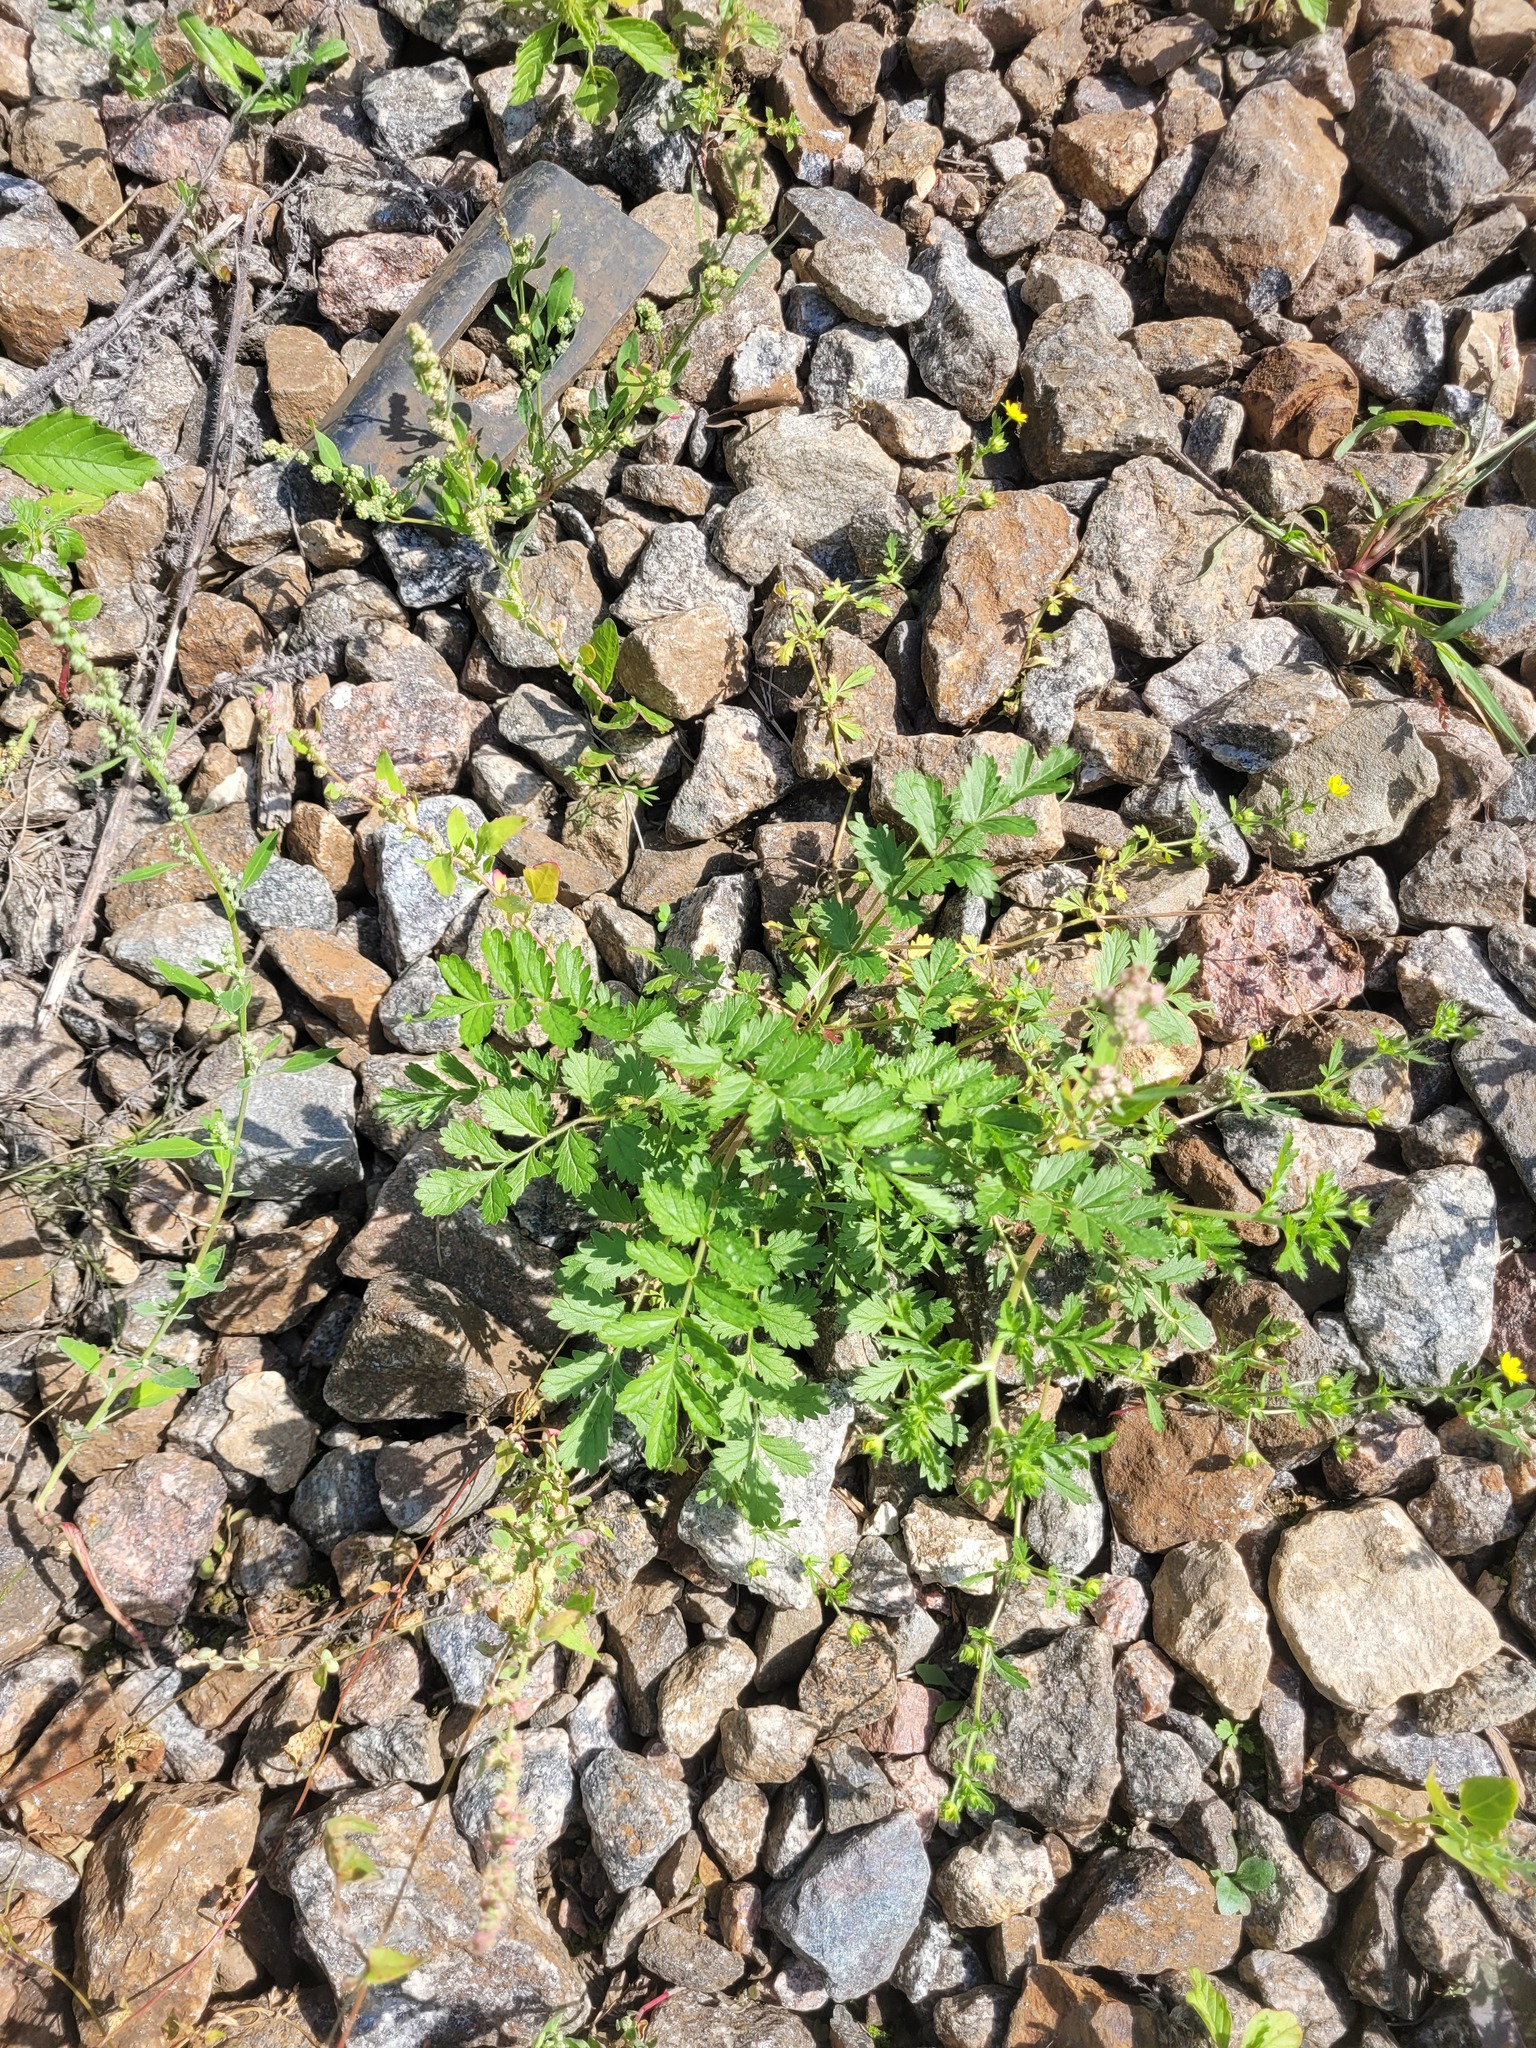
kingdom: Plantae
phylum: Tracheophyta
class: Magnoliopsida
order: Rosales
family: Rosaceae
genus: Potentilla
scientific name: Potentilla supina
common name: Prostrate cinquefoil
